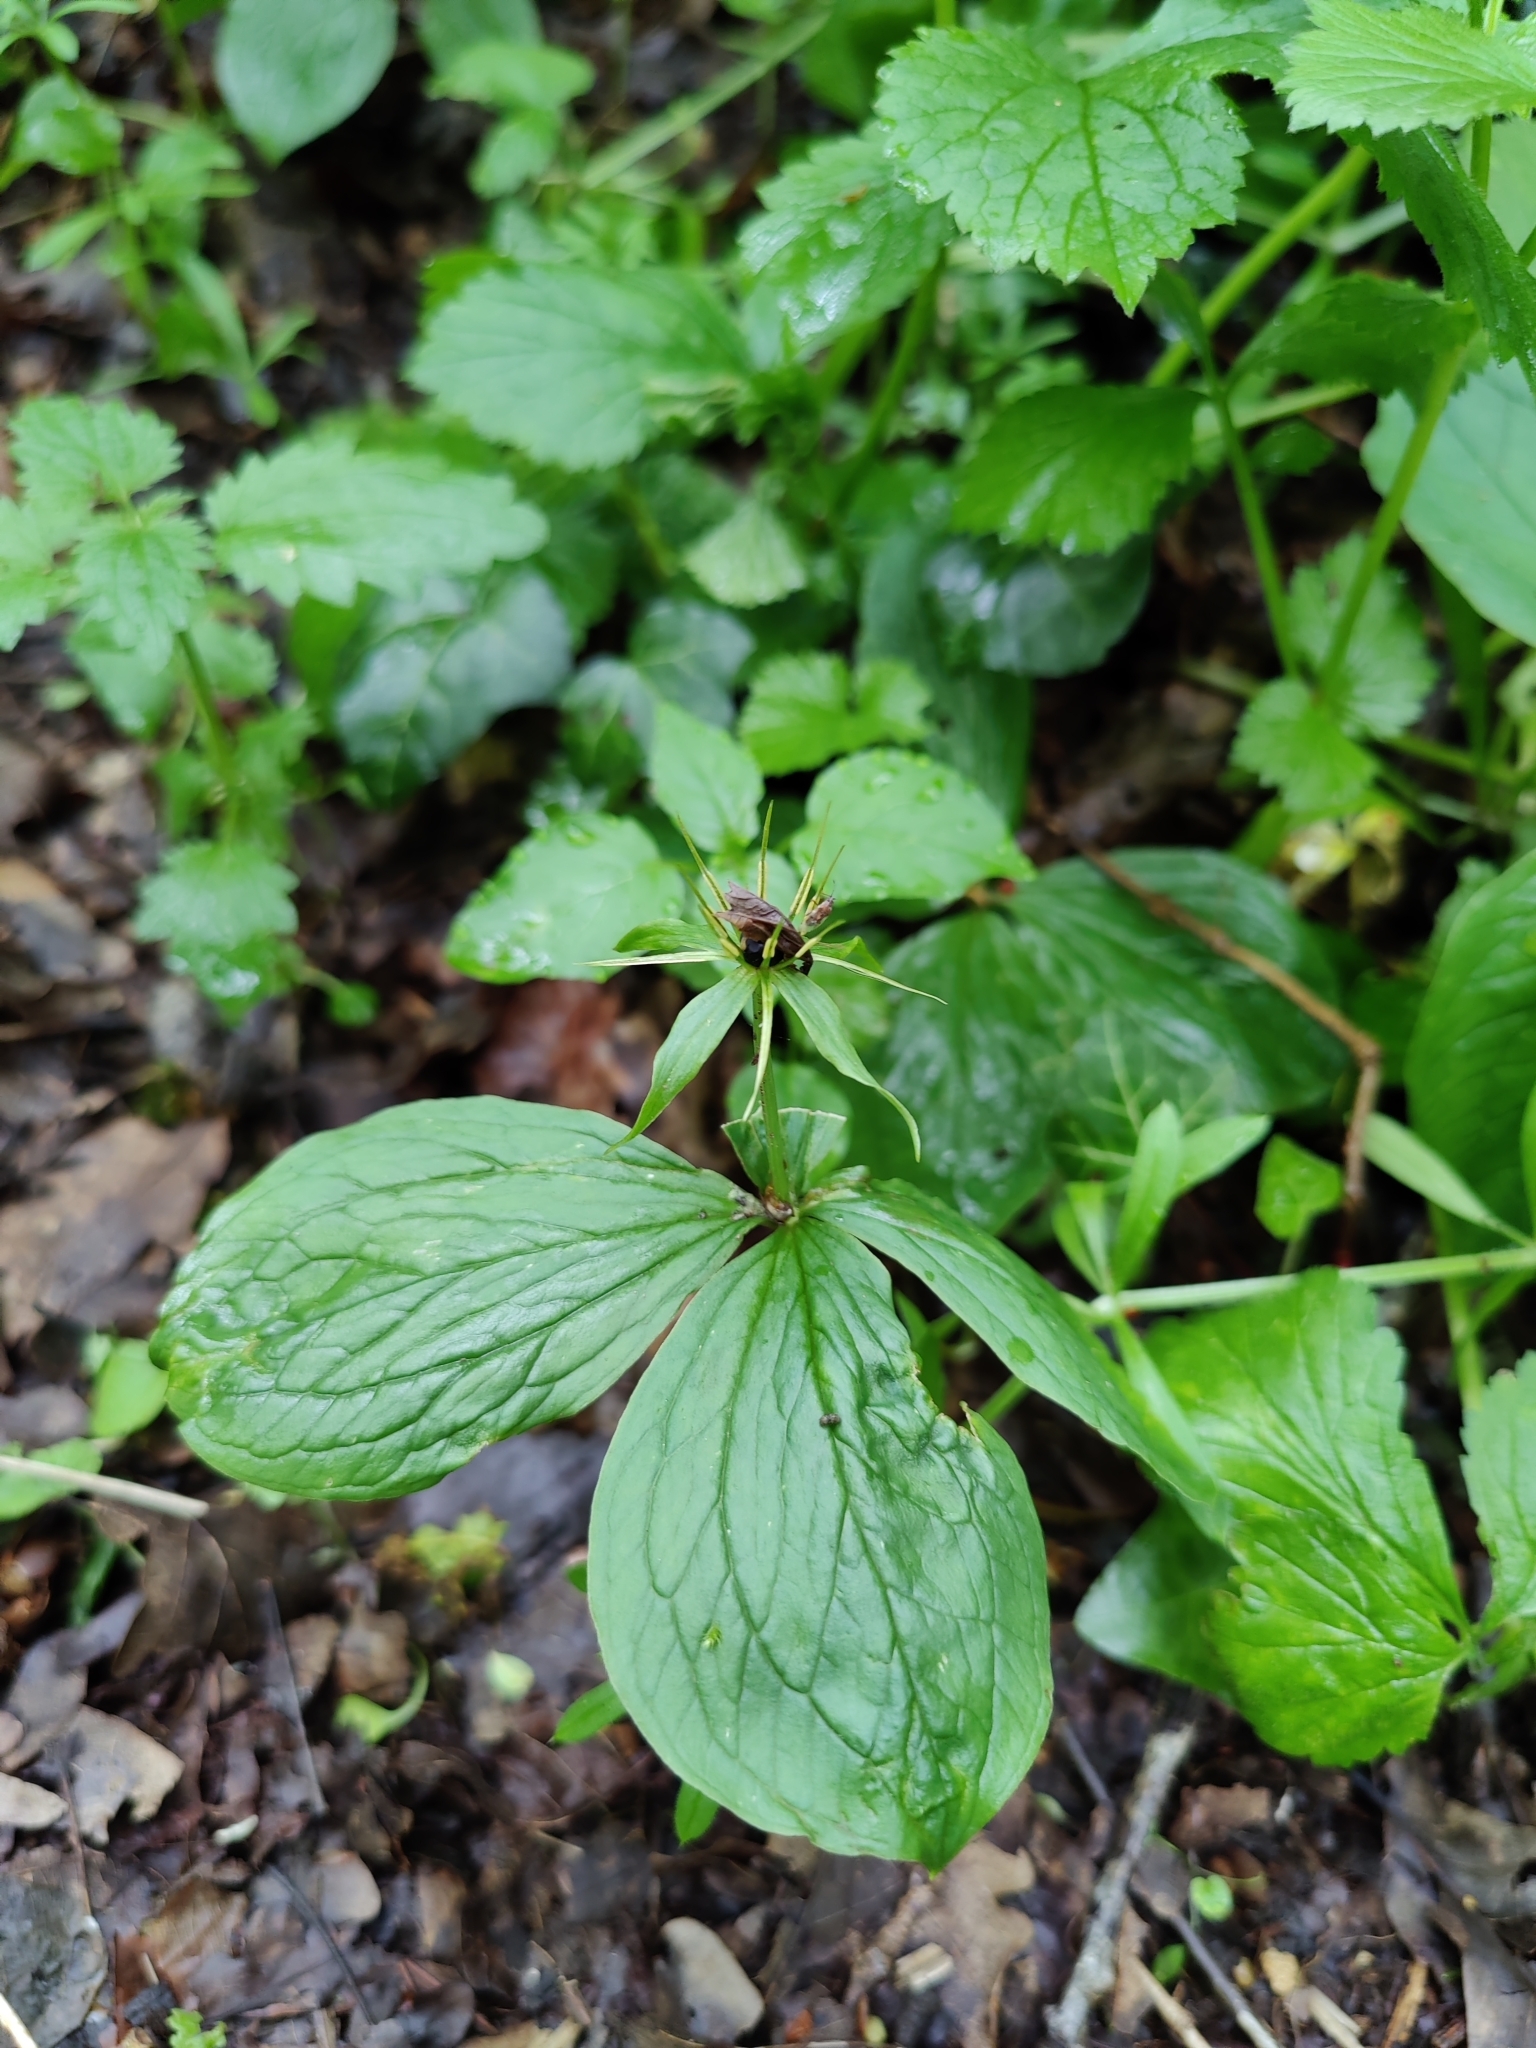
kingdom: Plantae
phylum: Tracheophyta
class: Liliopsida
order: Liliales
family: Melanthiaceae
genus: Paris
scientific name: Paris quadrifolia
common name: Herb-paris
